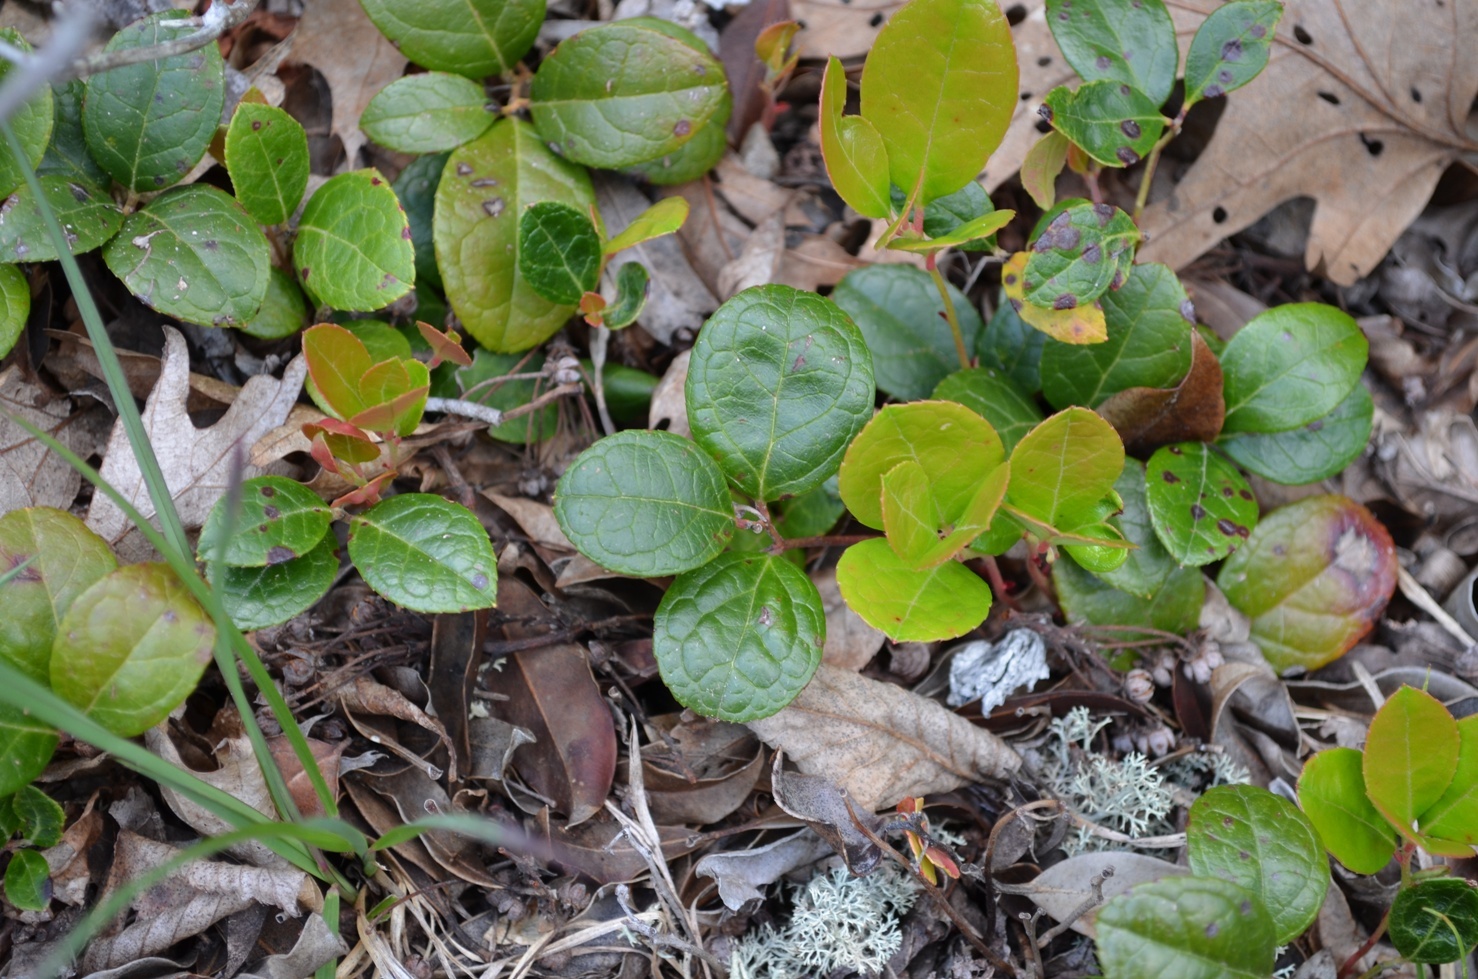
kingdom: Plantae
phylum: Tracheophyta
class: Magnoliopsida
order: Ericales
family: Ericaceae
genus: Gaultheria
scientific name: Gaultheria procumbens
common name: Checkerberry
